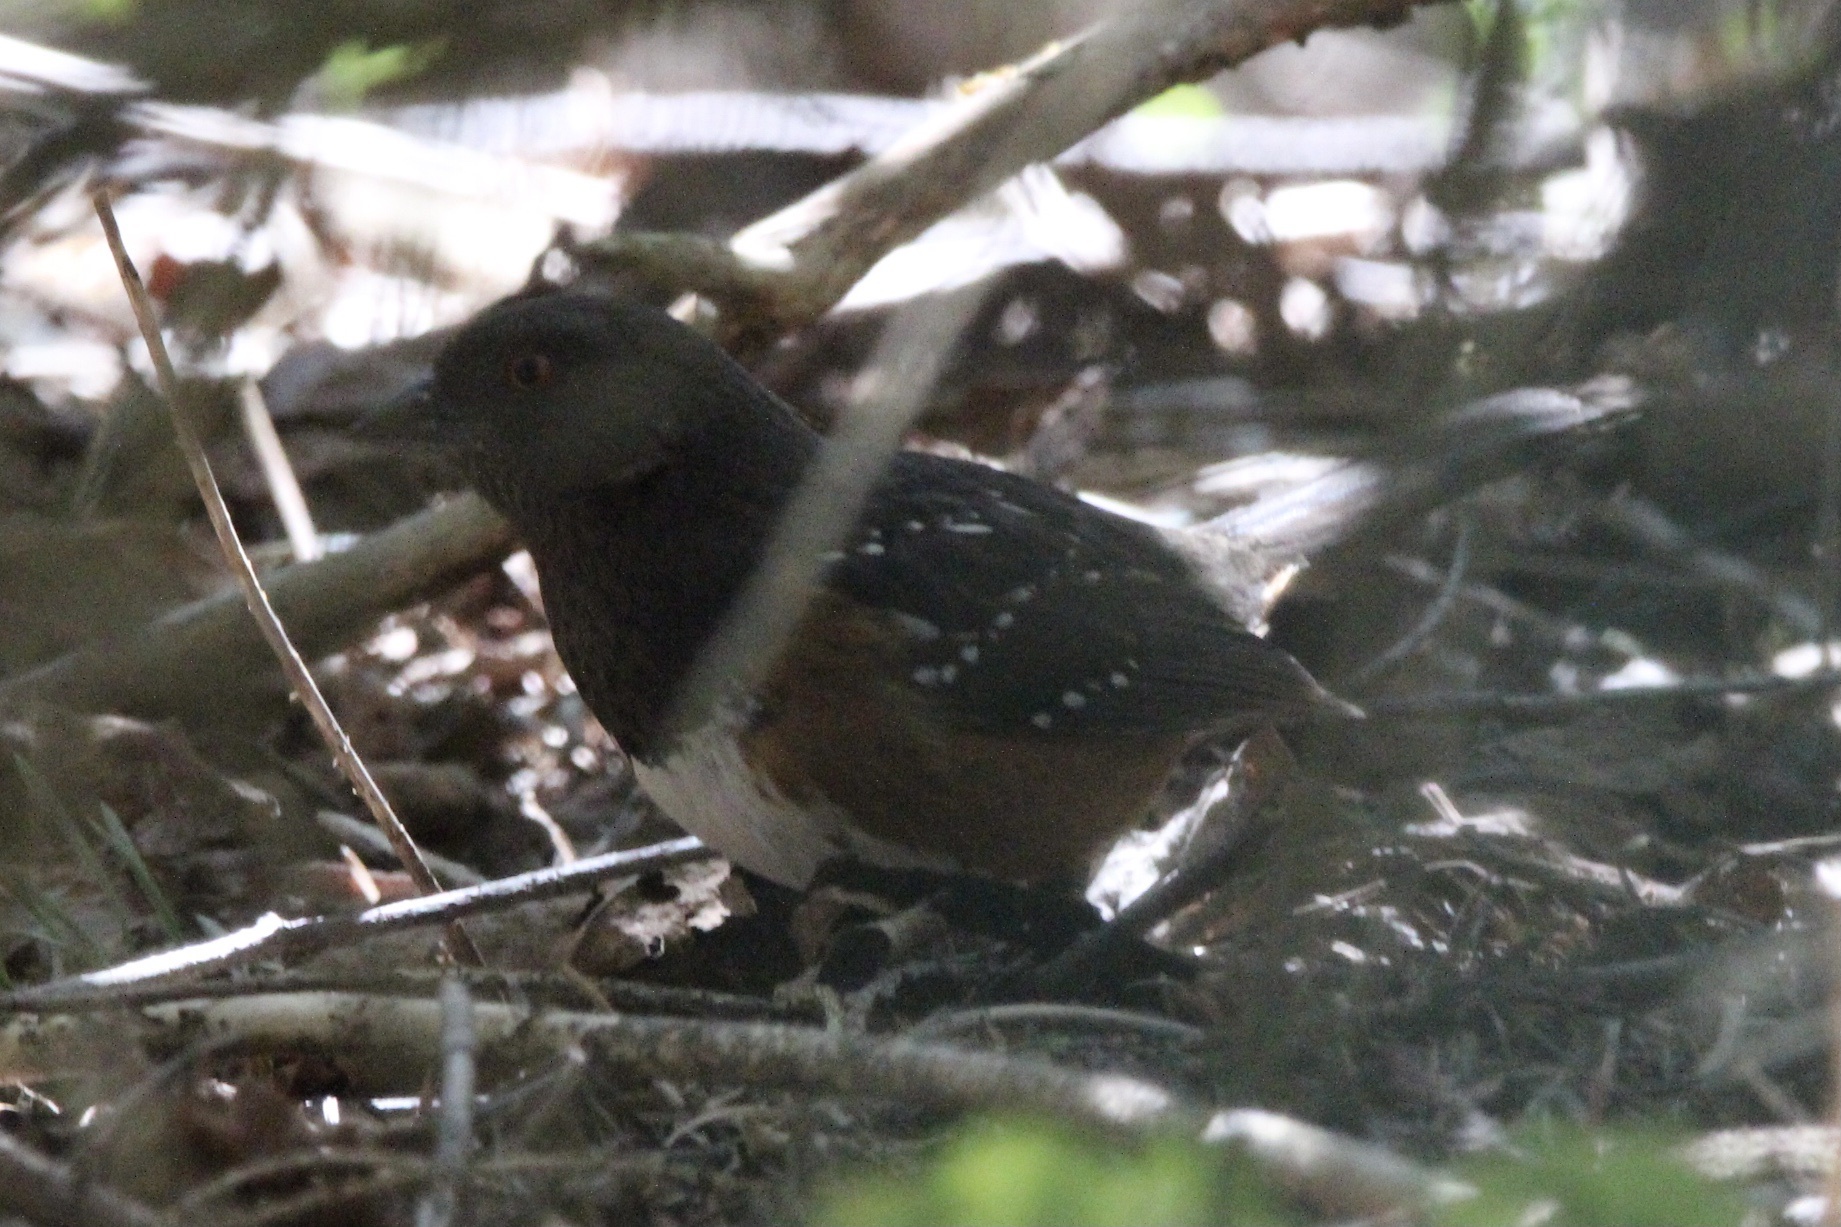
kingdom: Animalia
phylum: Chordata
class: Aves
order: Passeriformes
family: Passerellidae
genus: Pipilo
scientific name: Pipilo maculatus
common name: Spotted towhee
